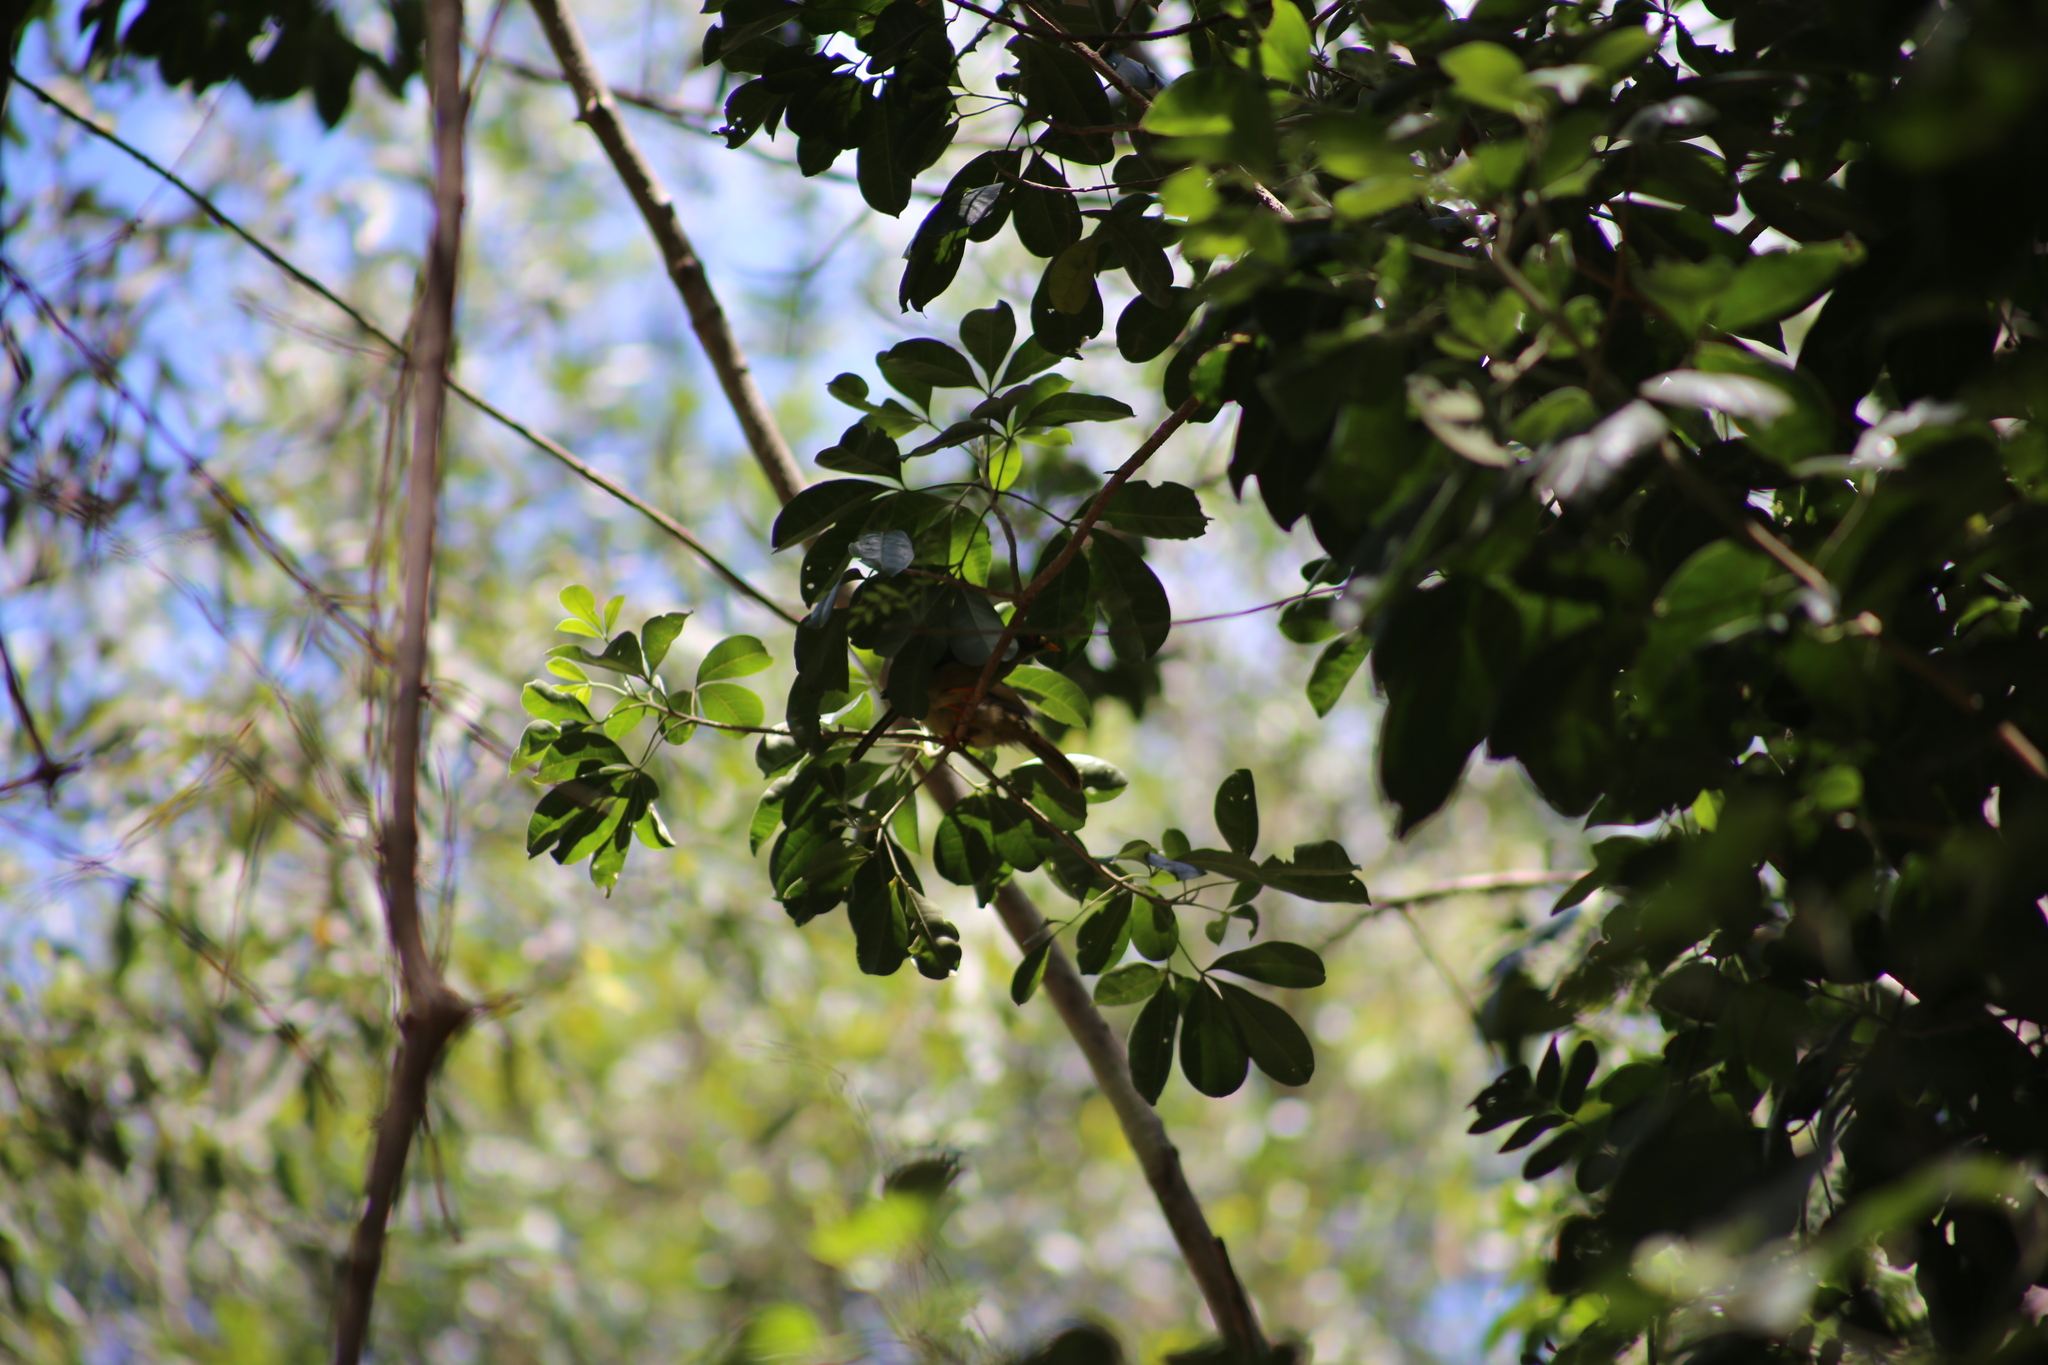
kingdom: Animalia
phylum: Chordata
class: Aves
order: Passeriformes
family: Meliphagidae
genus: Manorina
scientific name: Manorina melanophrys
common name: Bell miner
